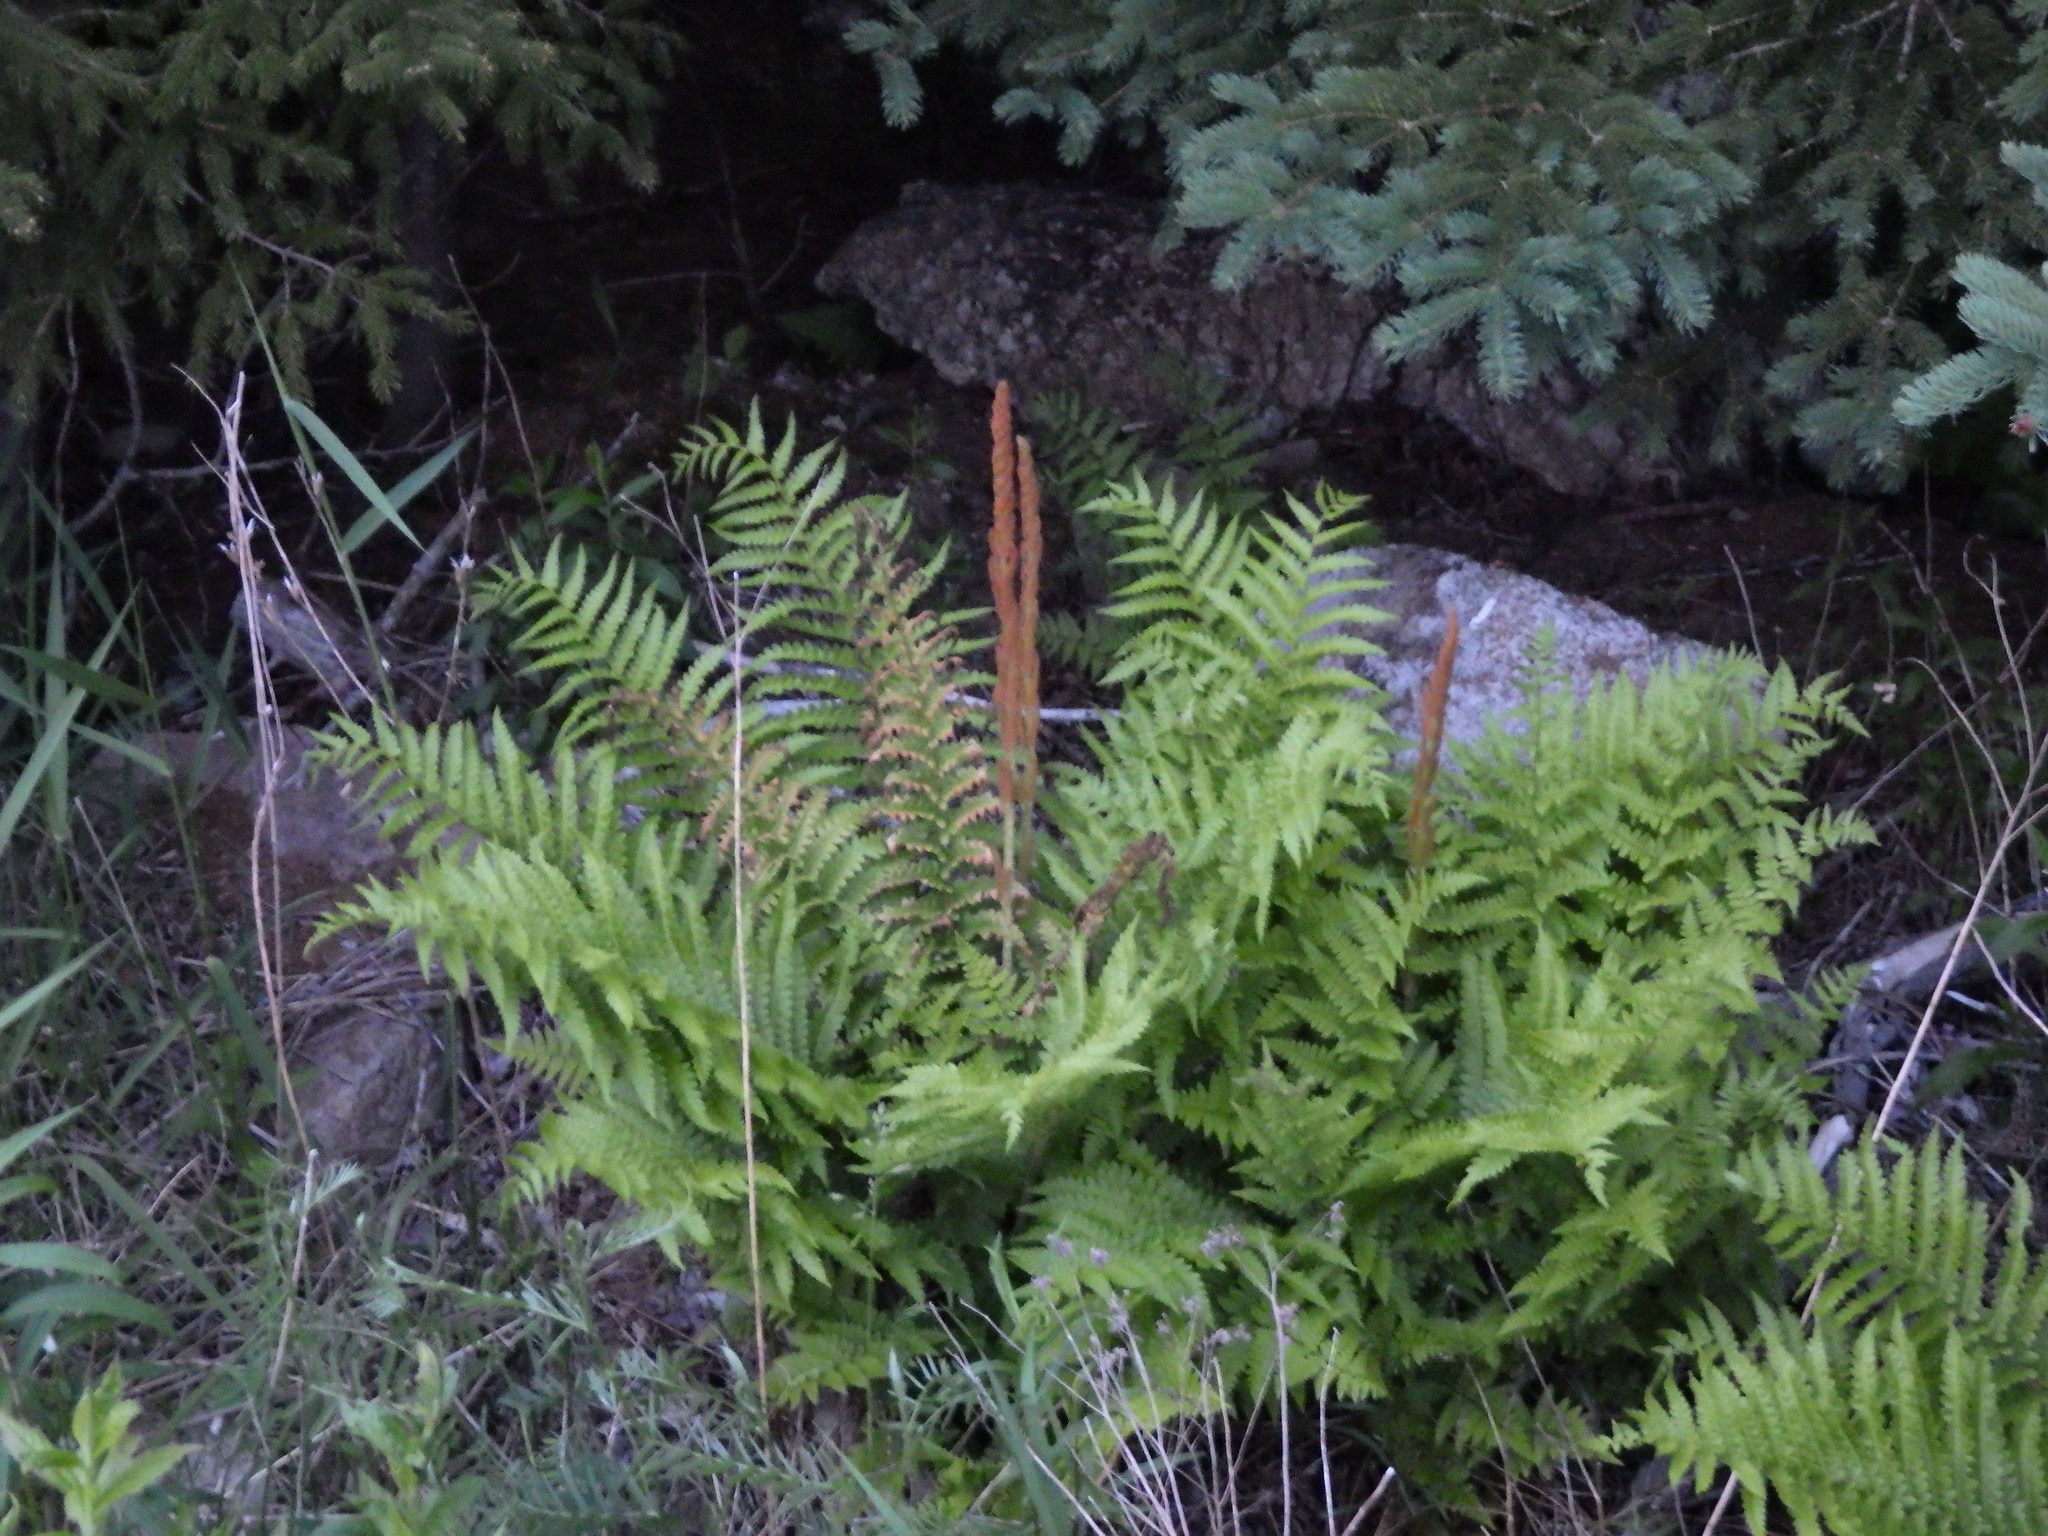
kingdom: Plantae
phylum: Tracheophyta
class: Polypodiopsida
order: Osmundales
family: Osmundaceae
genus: Osmundastrum
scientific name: Osmundastrum cinnamomeum
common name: Cinnamon fern
